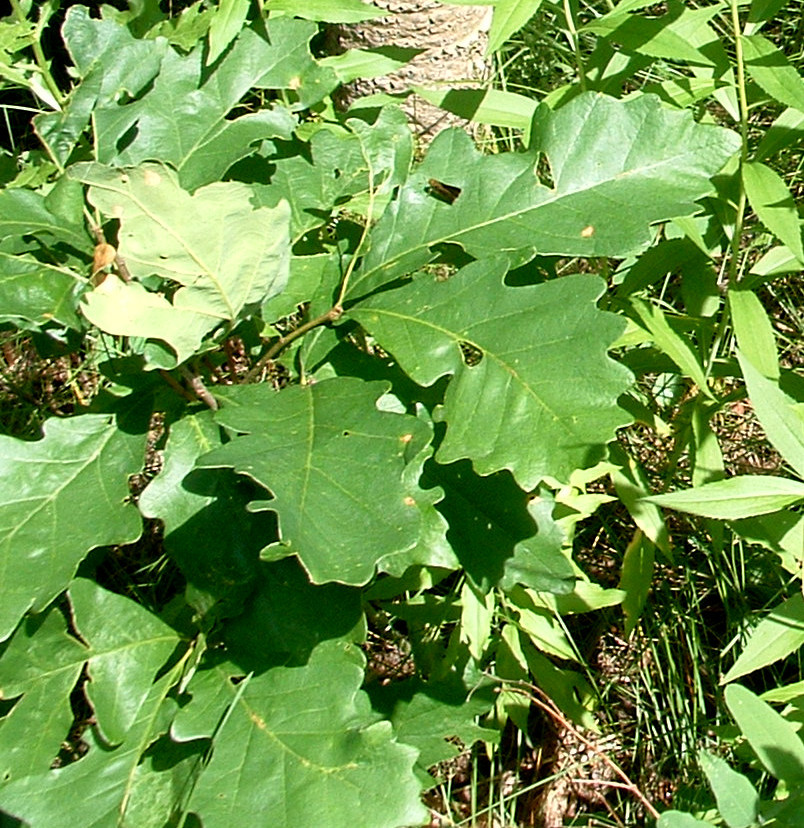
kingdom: Plantae
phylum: Tracheophyta
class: Magnoliopsida
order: Fagales
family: Fagaceae
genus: Quercus
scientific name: Quercus macrocarpa
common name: Bur oak
